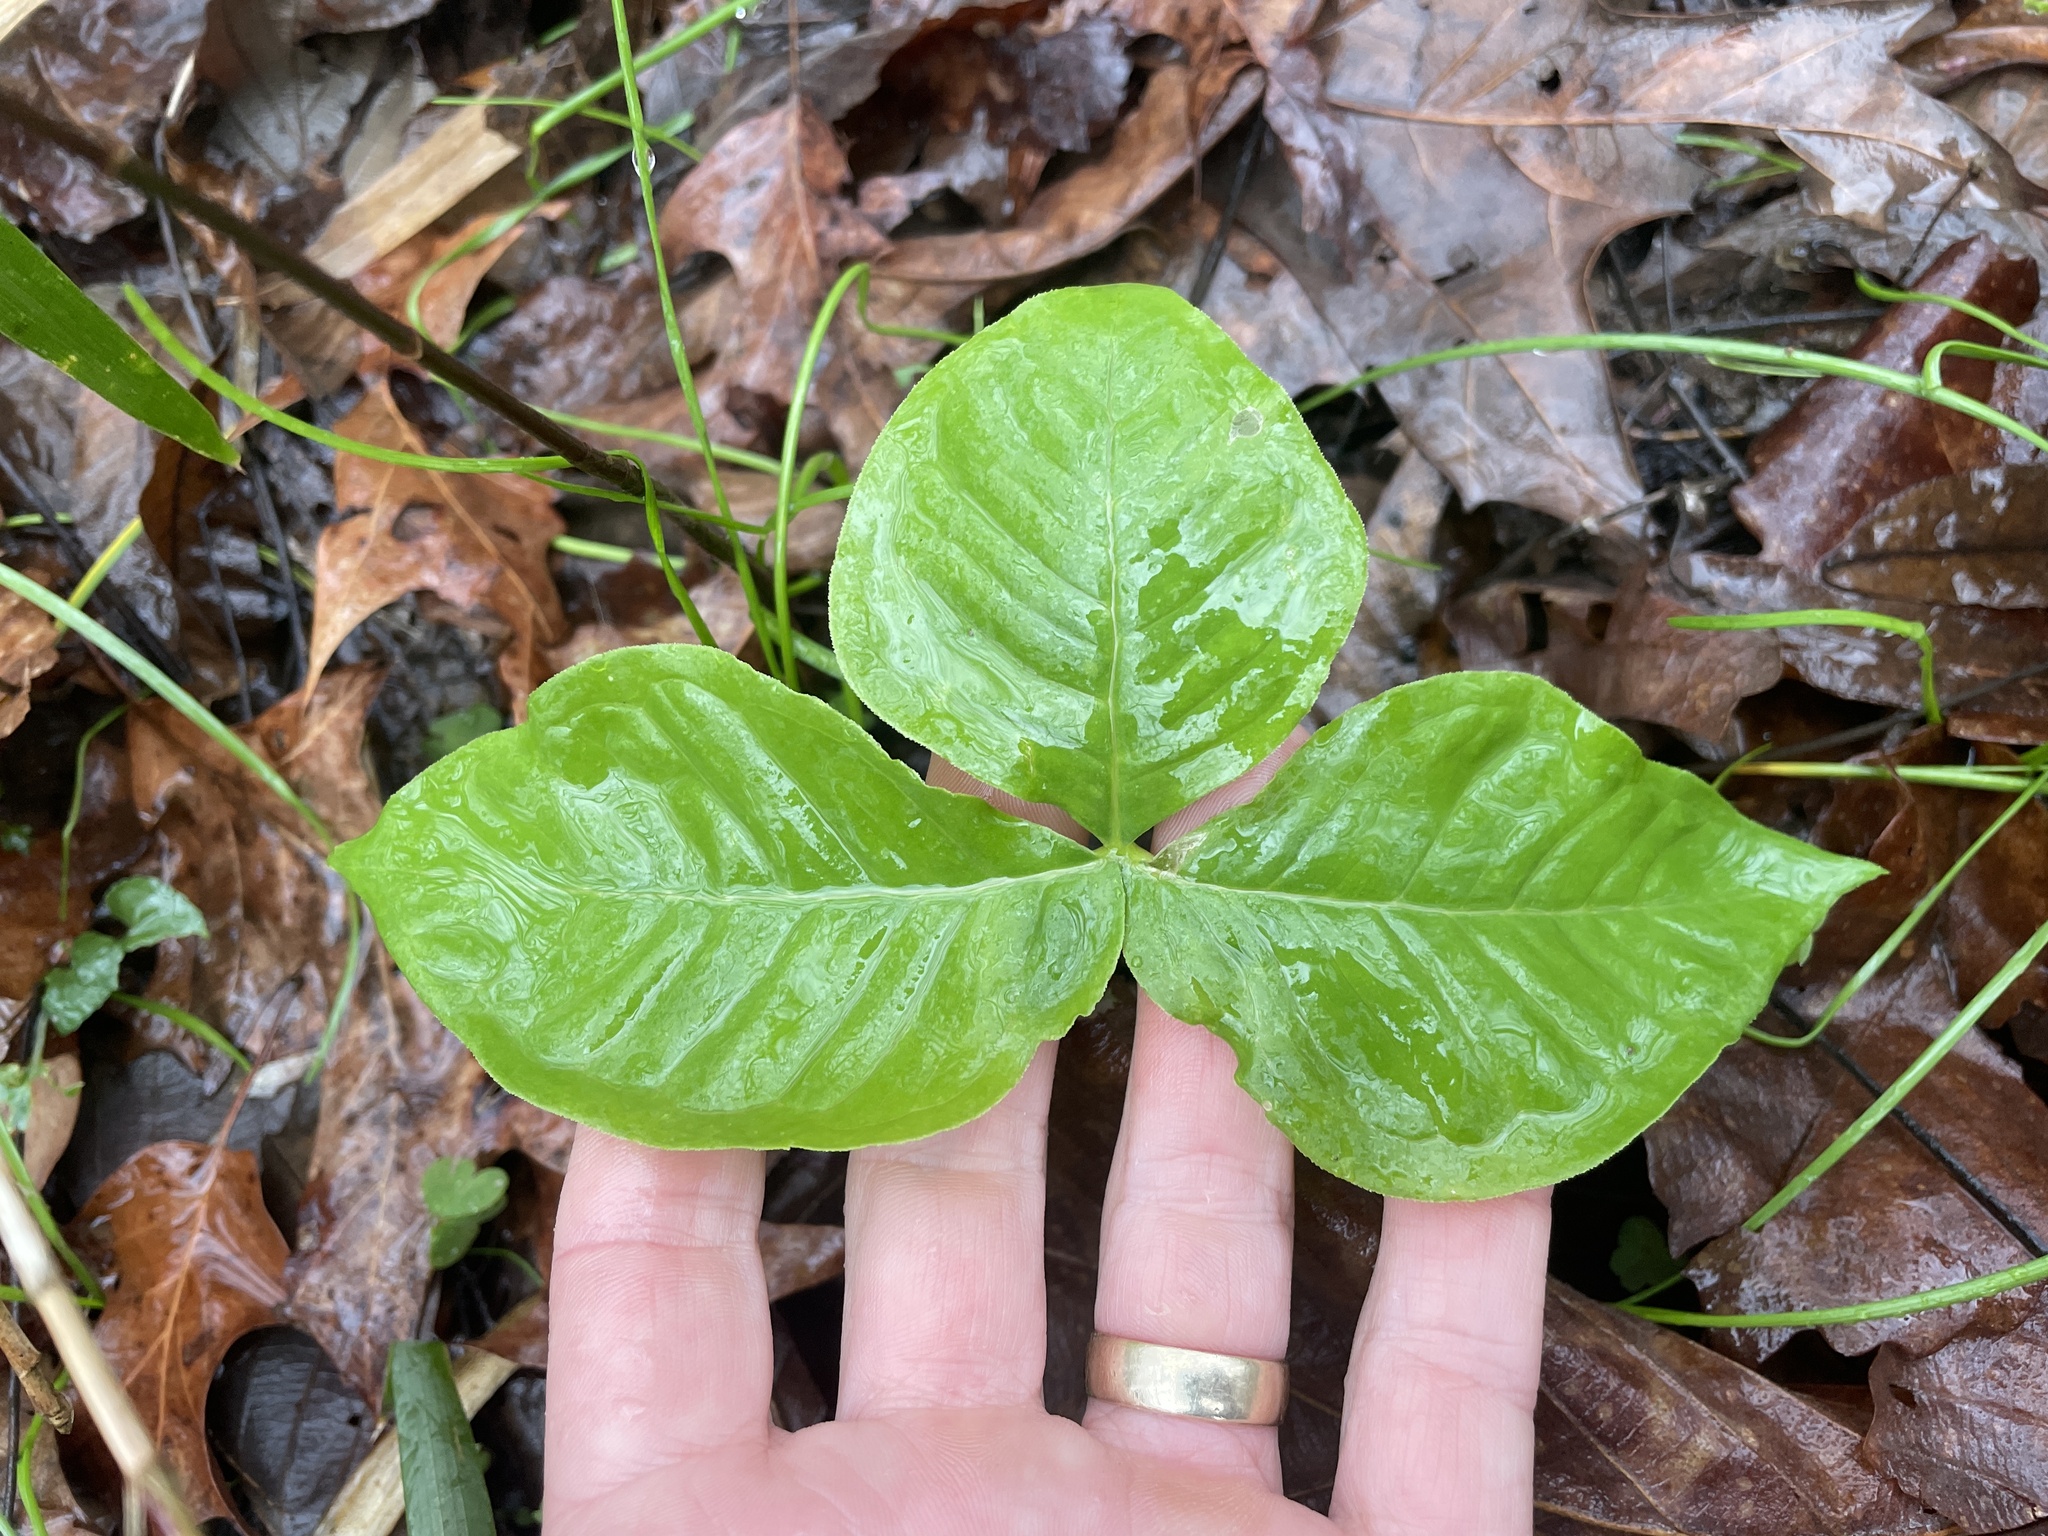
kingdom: Plantae
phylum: Tracheophyta
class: Liliopsida
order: Alismatales
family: Araceae
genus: Arisaema
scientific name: Arisaema triphyllum
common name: Jack-in-the-pulpit
